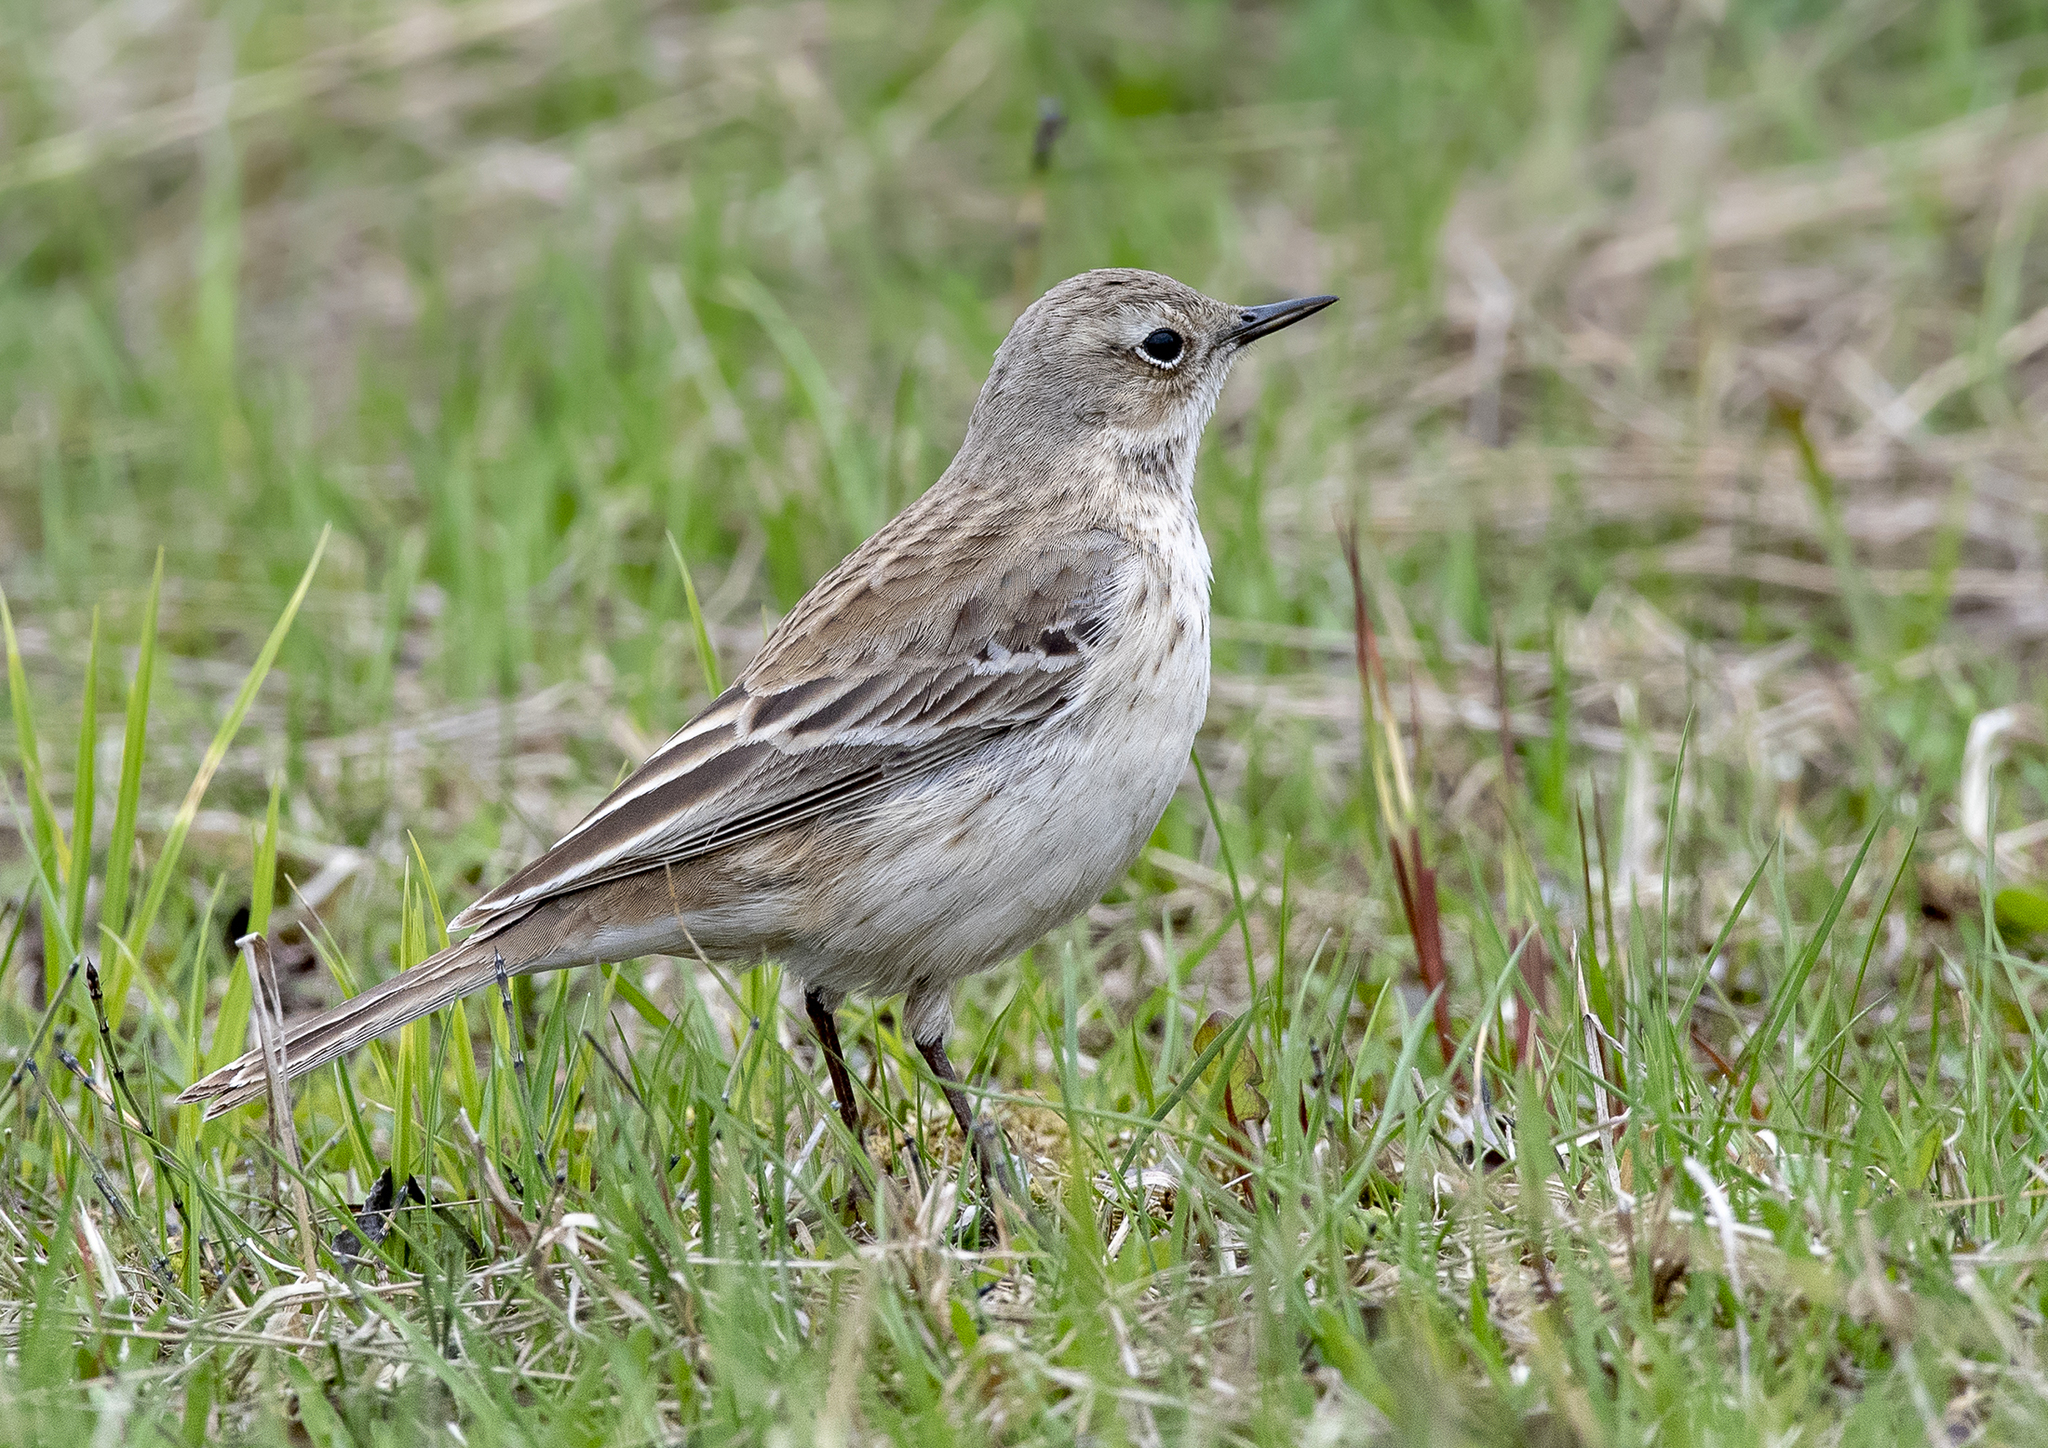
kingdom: Animalia
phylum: Chordata
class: Aves
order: Passeriformes
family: Motacillidae
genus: Anthus
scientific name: Anthus spinoletta
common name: Water pipit
